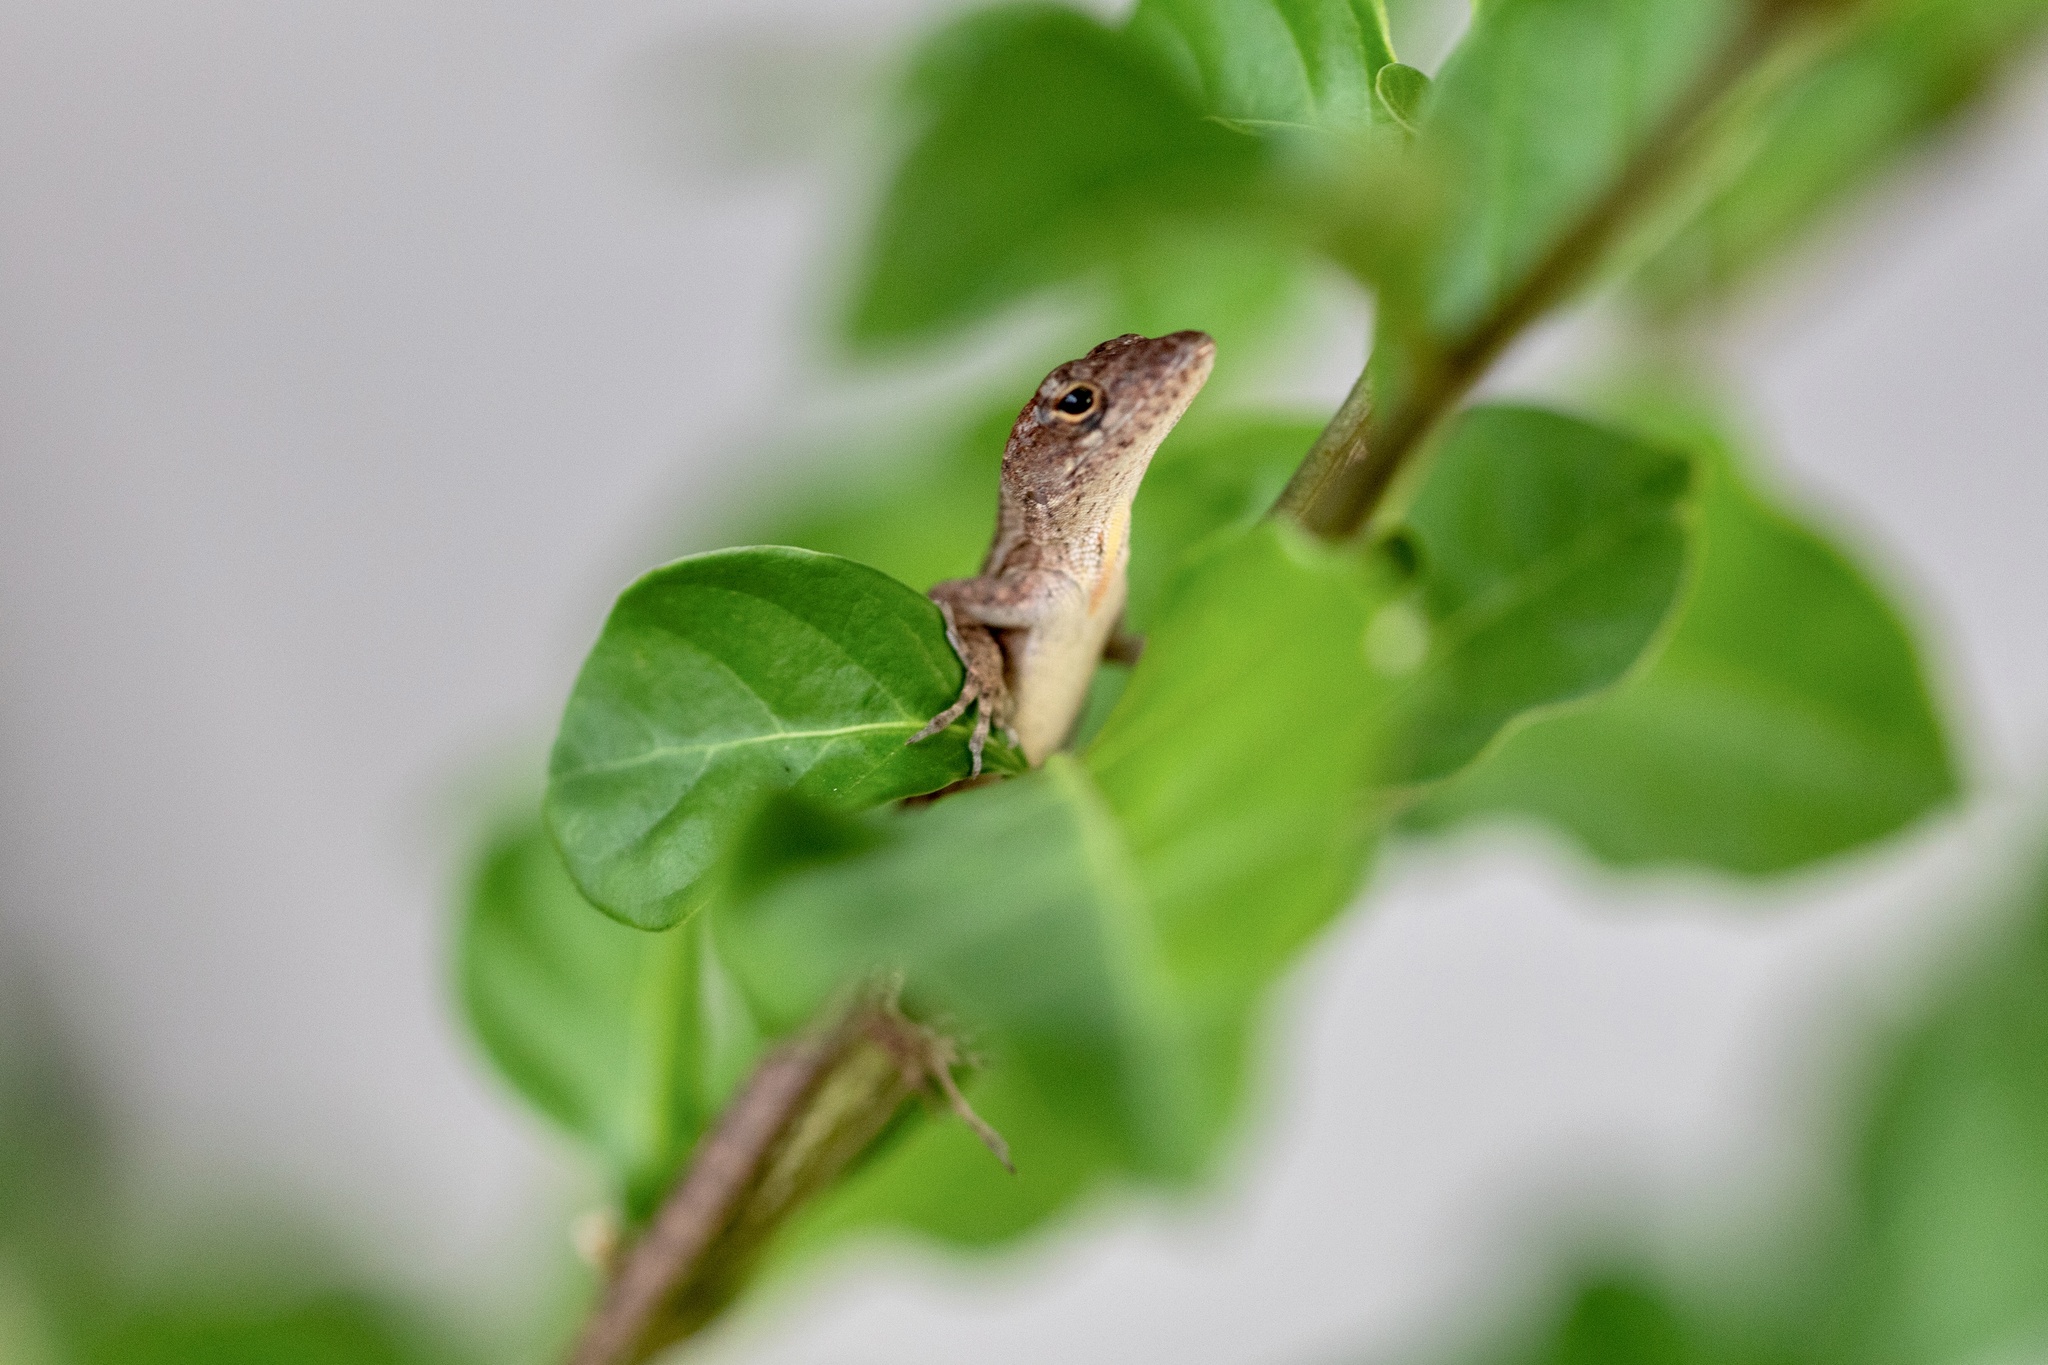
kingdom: Animalia
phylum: Chordata
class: Squamata
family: Dactyloidae
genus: Anolis
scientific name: Anolis sagrei
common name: Brown anole
